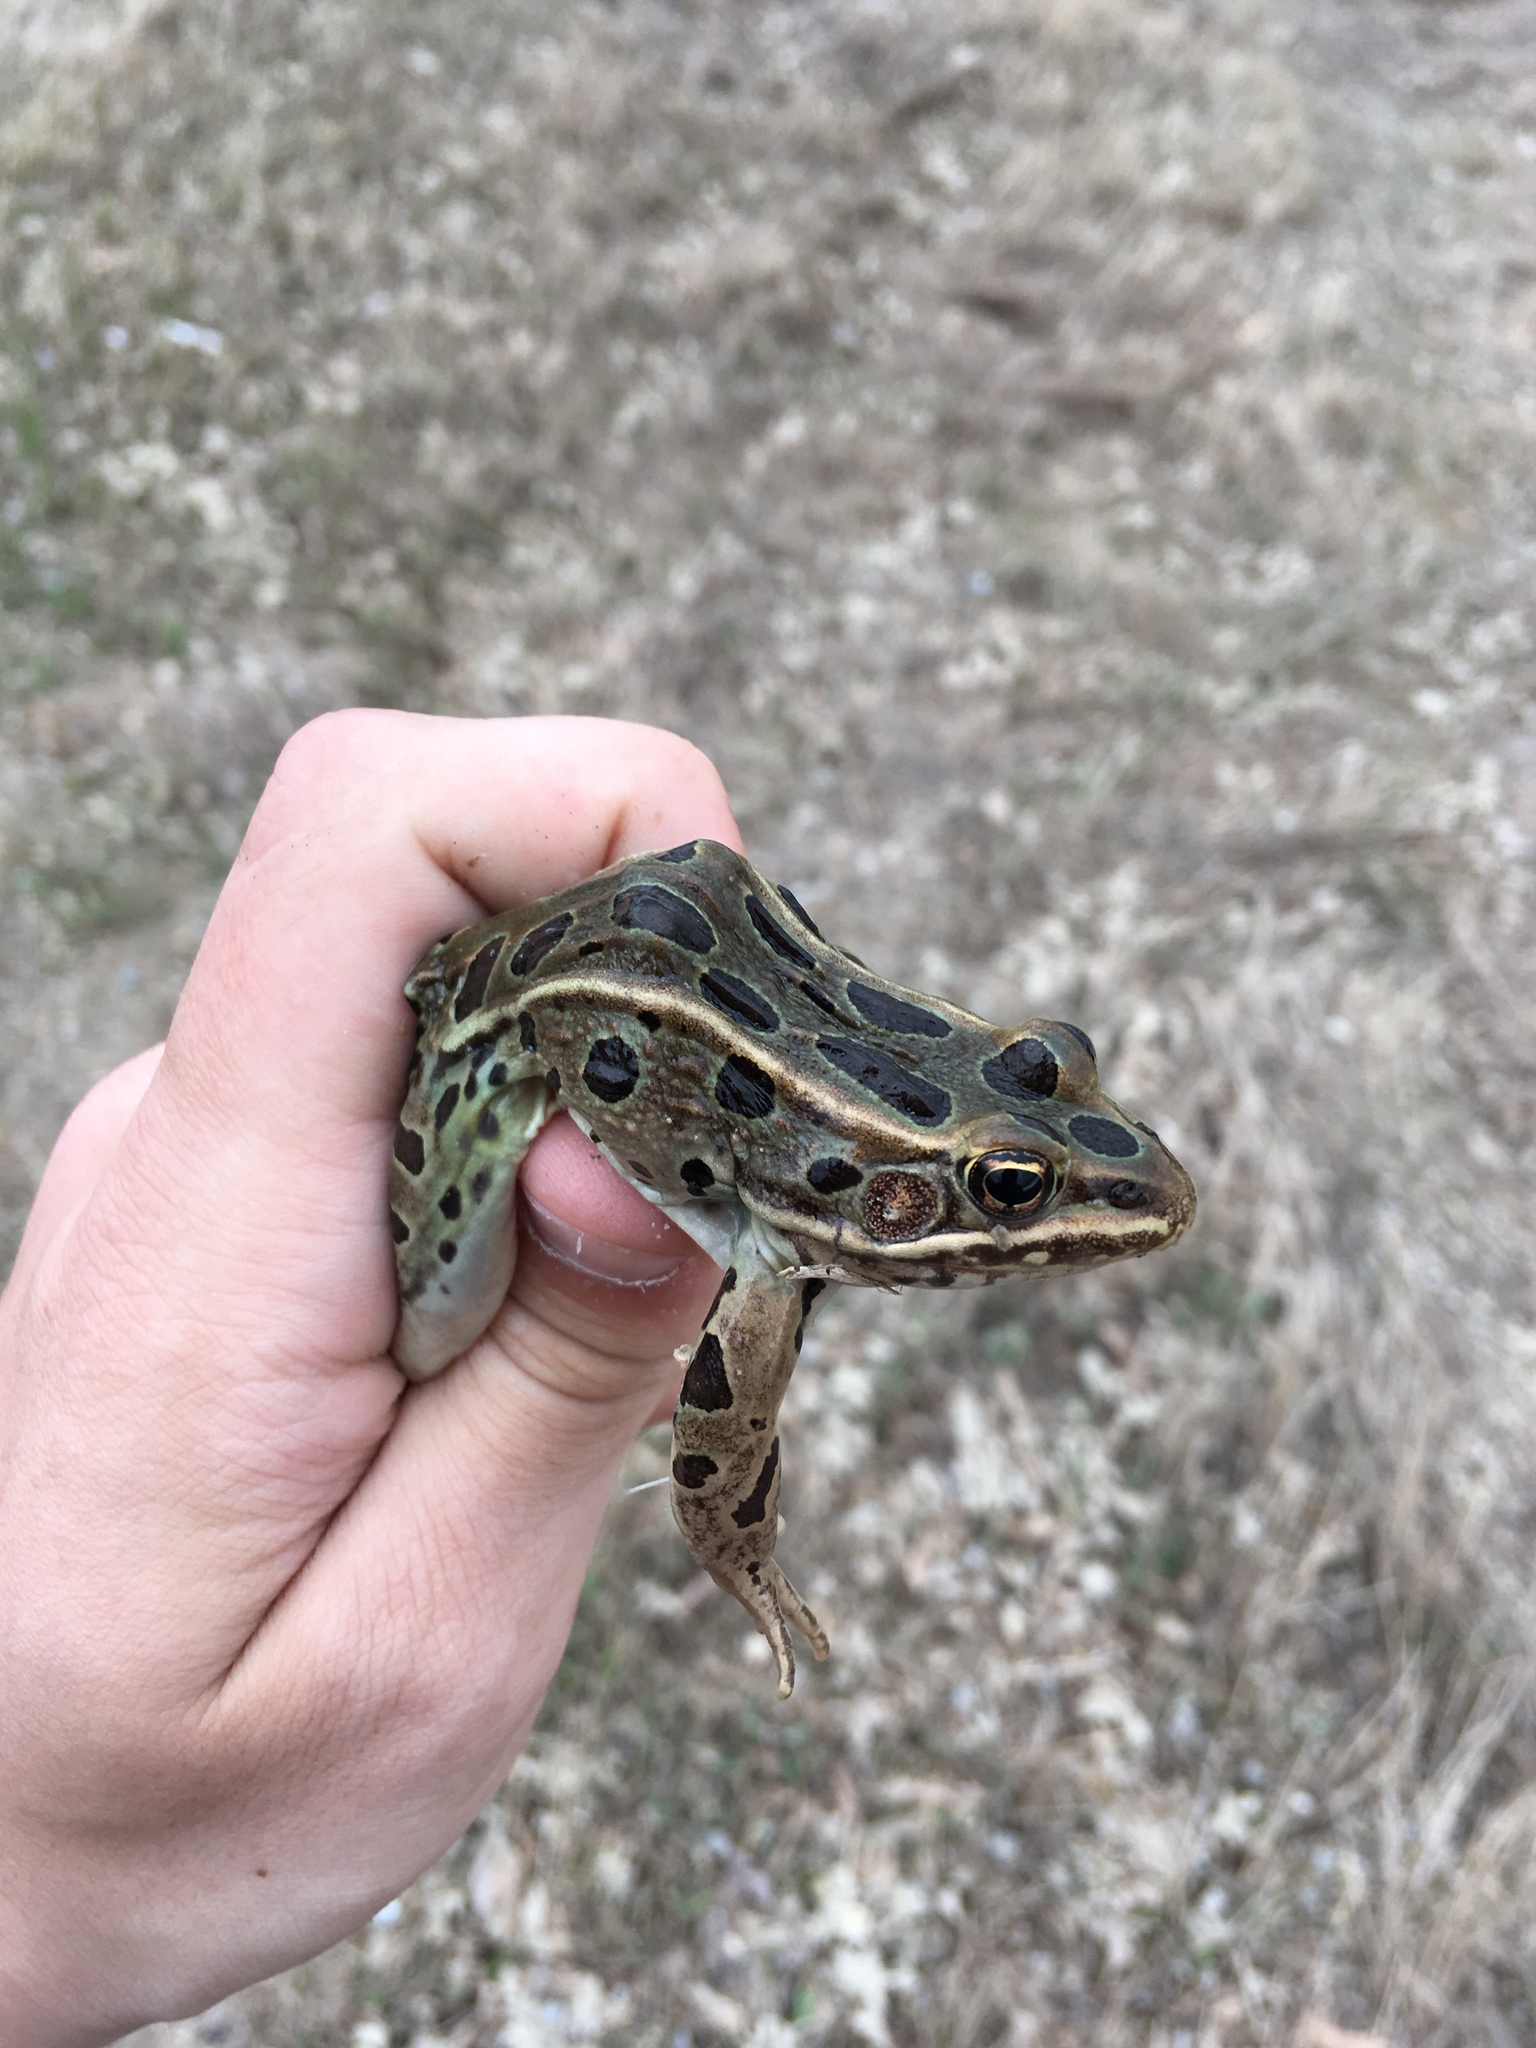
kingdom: Animalia
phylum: Chordata
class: Amphibia
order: Anura
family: Ranidae
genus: Lithobates
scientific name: Lithobates pipiens
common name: Northern leopard frog
